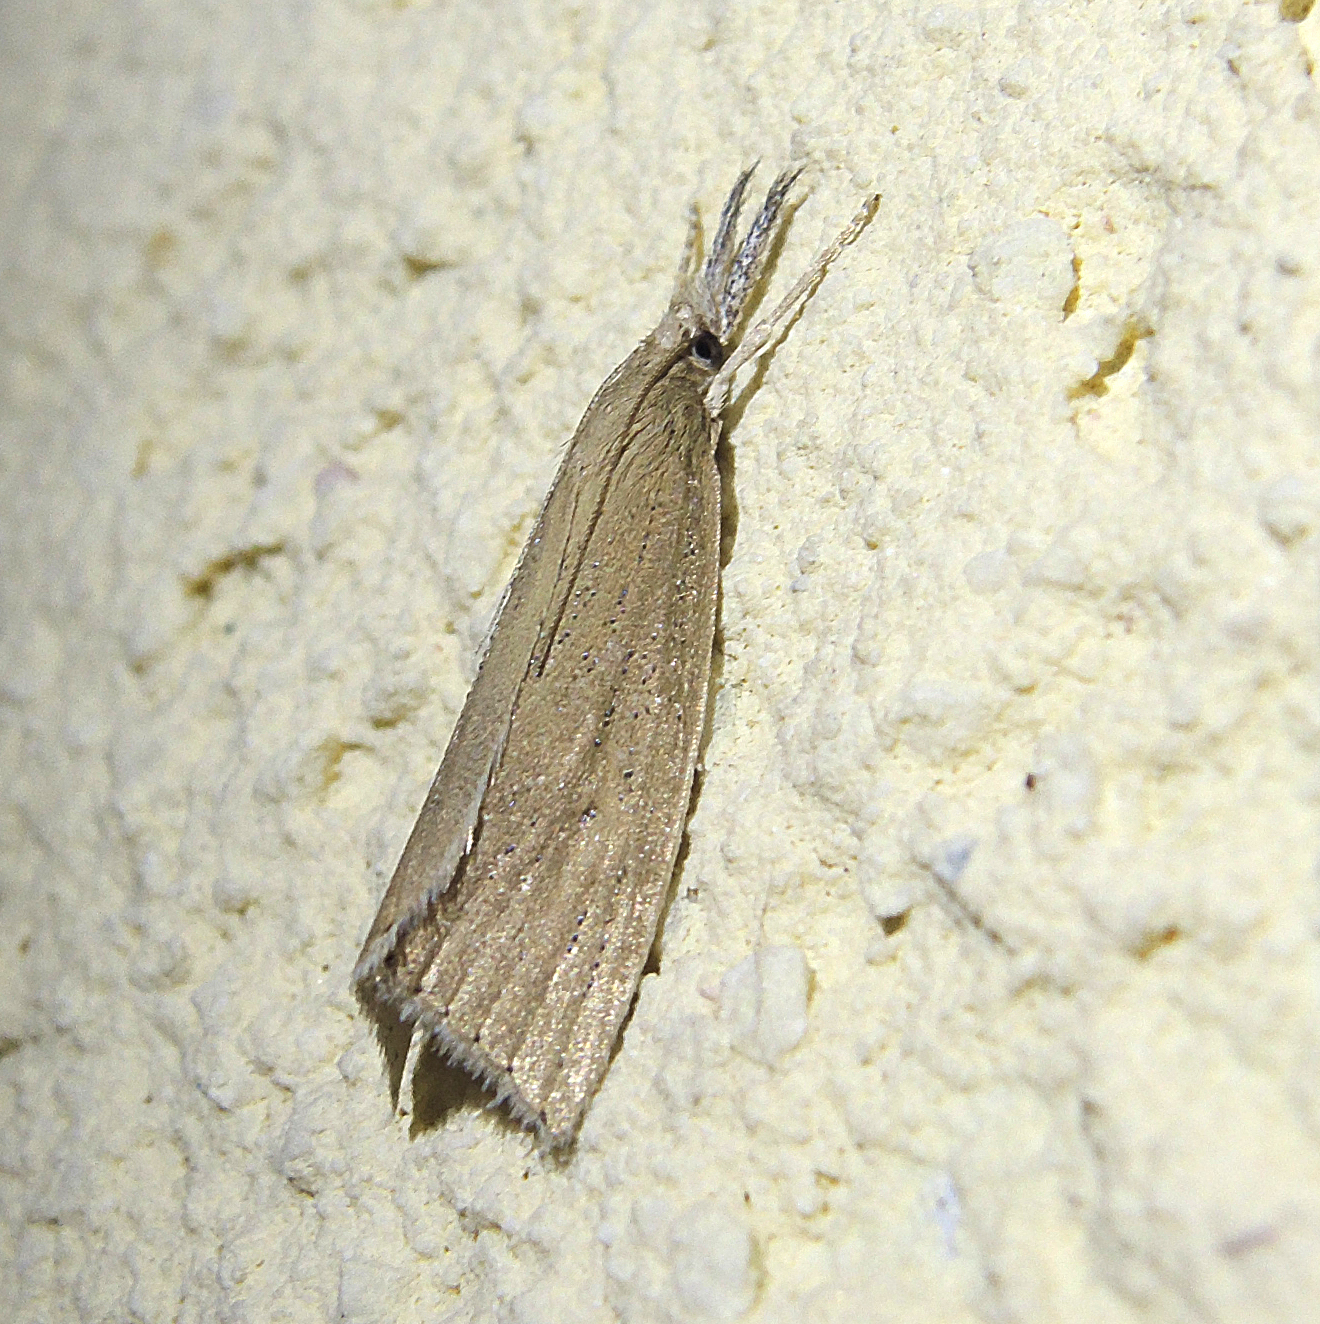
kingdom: Animalia
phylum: Arthropoda
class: Insecta
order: Lepidoptera
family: Crambidae
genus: Chilo
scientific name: Chilo phragmitella
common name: Reed veneer
